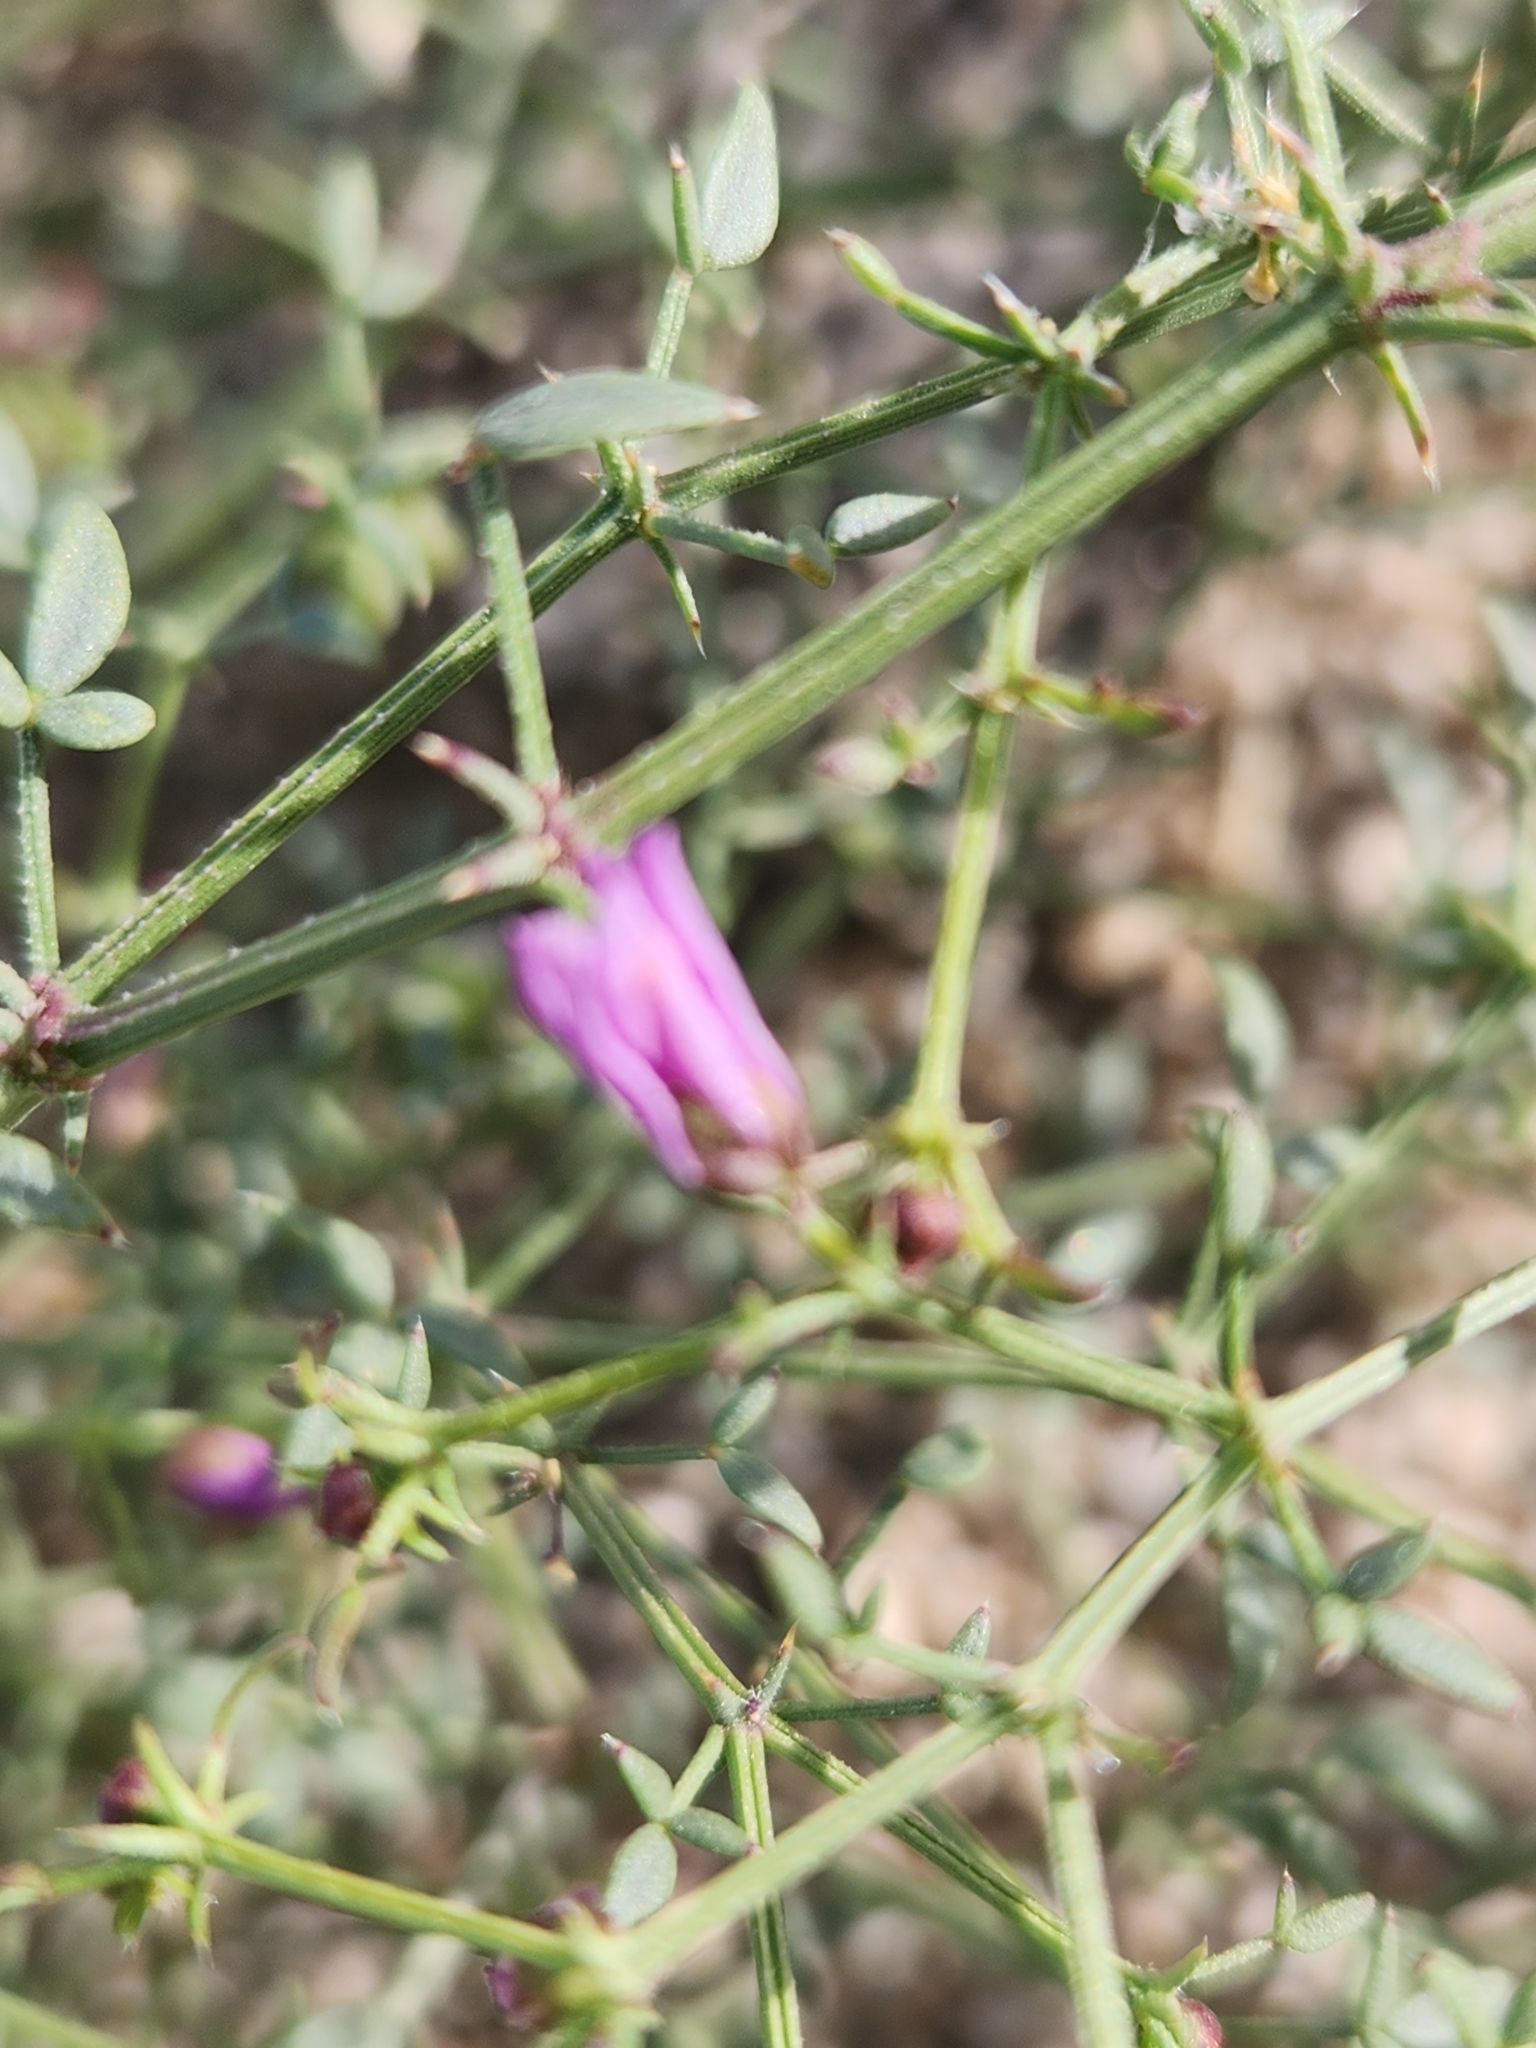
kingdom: Plantae
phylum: Tracheophyta
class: Magnoliopsida
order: Zygophyllales
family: Zygophyllaceae
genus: Fagonia
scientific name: Fagonia laevis
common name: California fagonbush
